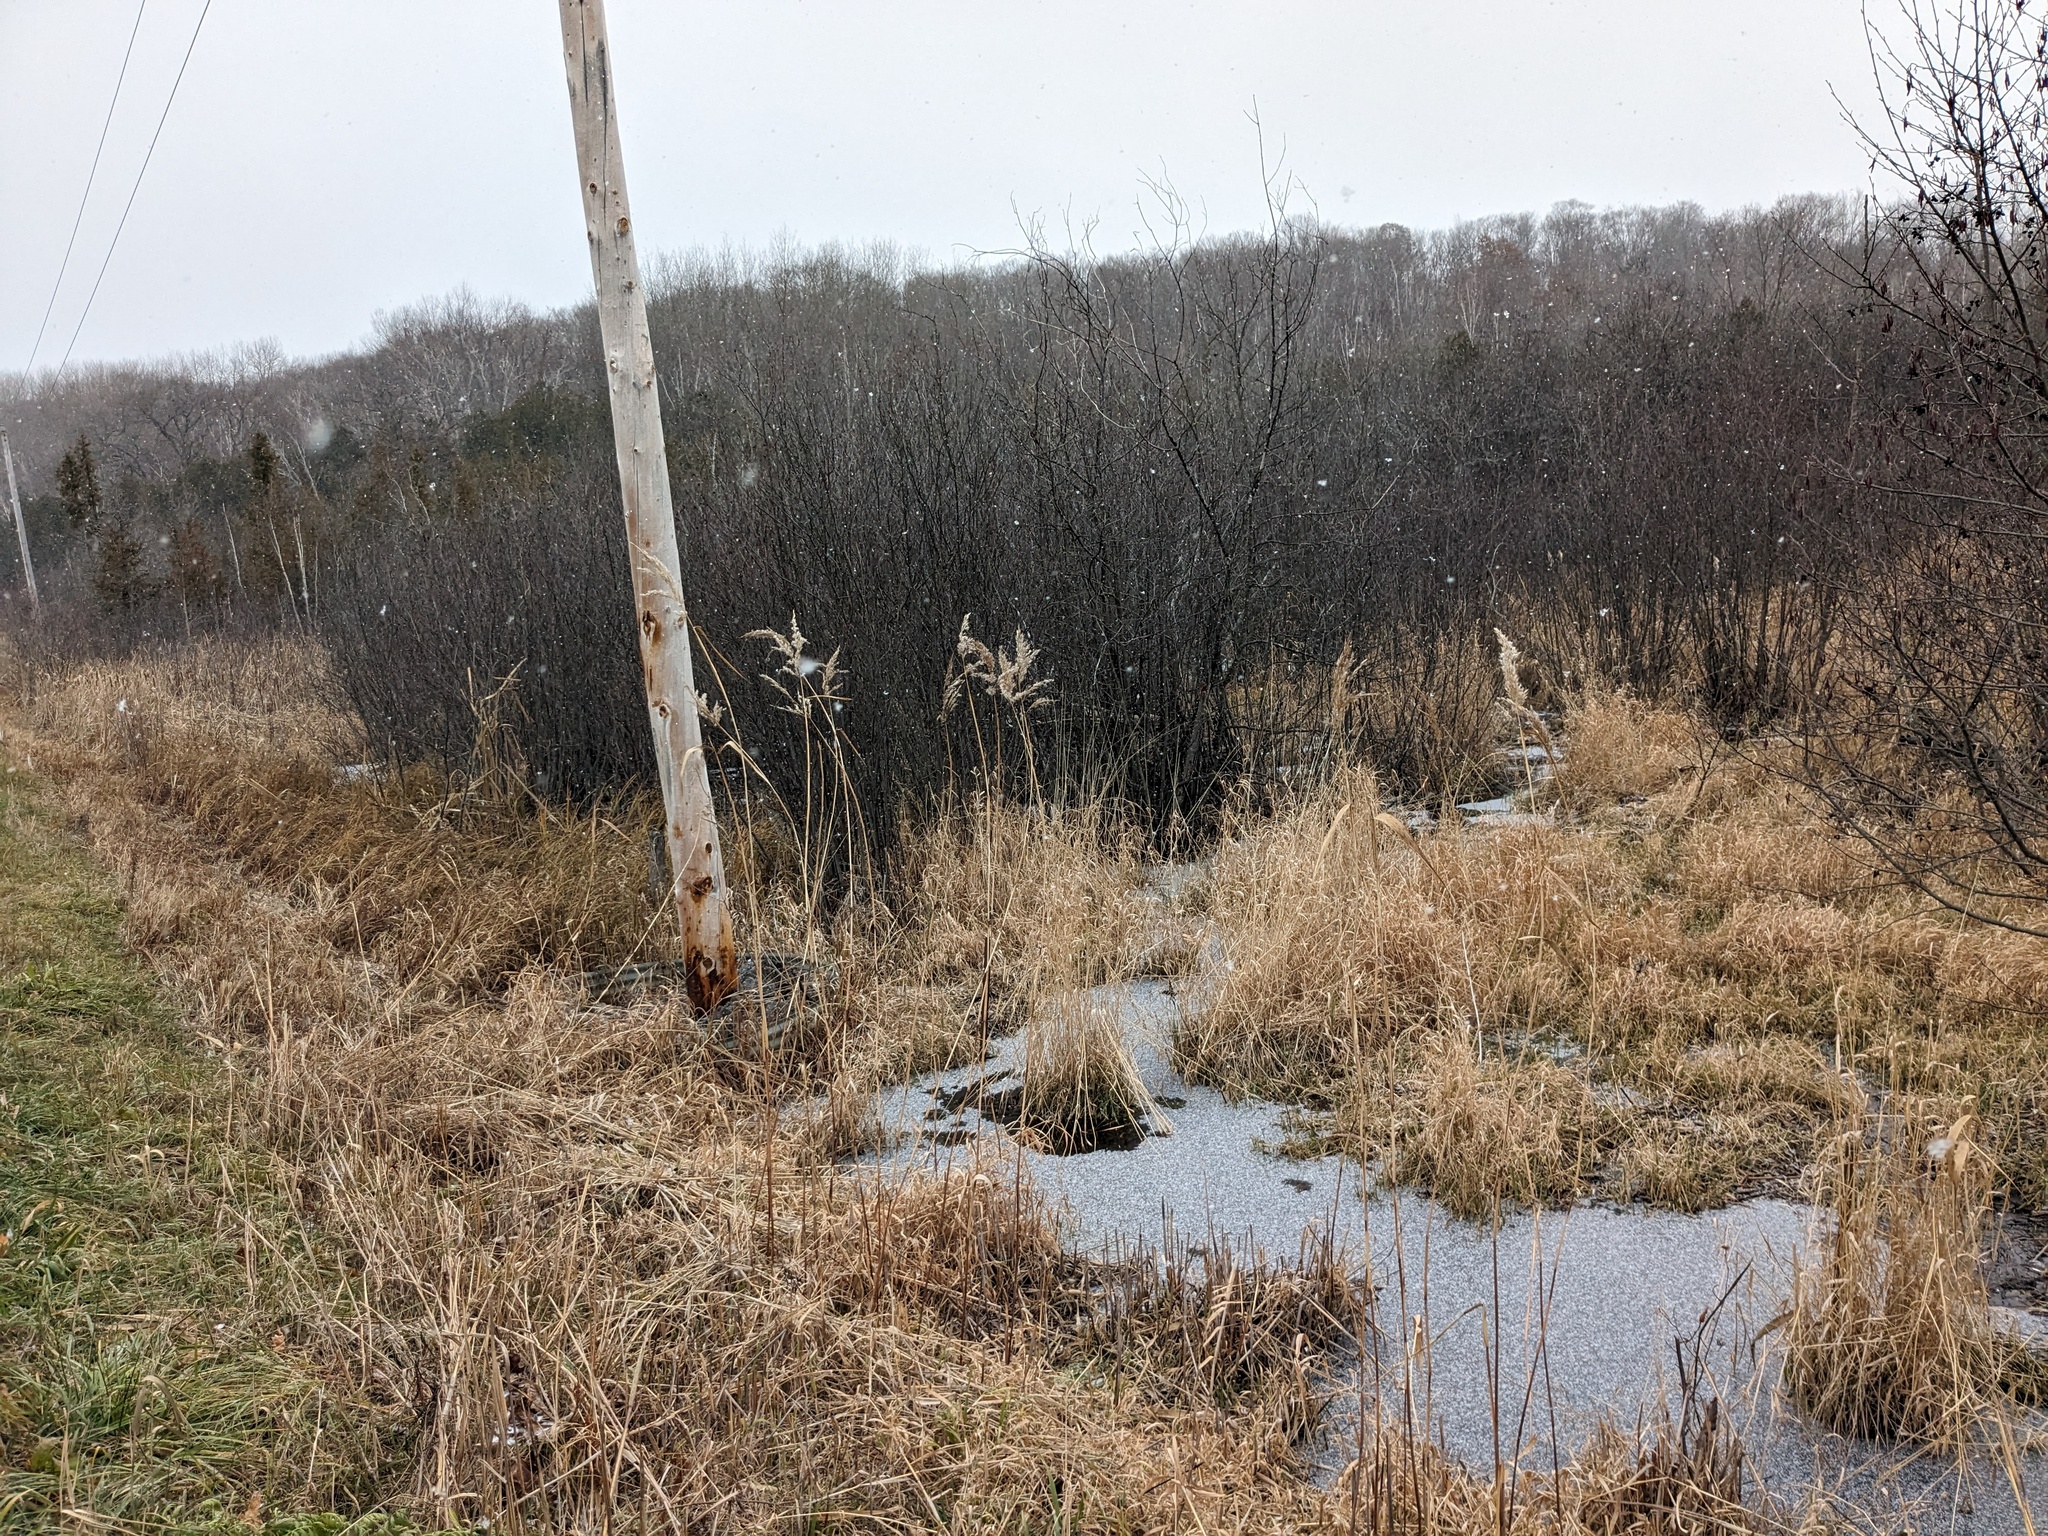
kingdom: Plantae
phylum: Tracheophyta
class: Liliopsida
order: Poales
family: Poaceae
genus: Phragmites
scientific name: Phragmites australis
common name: Common reed
